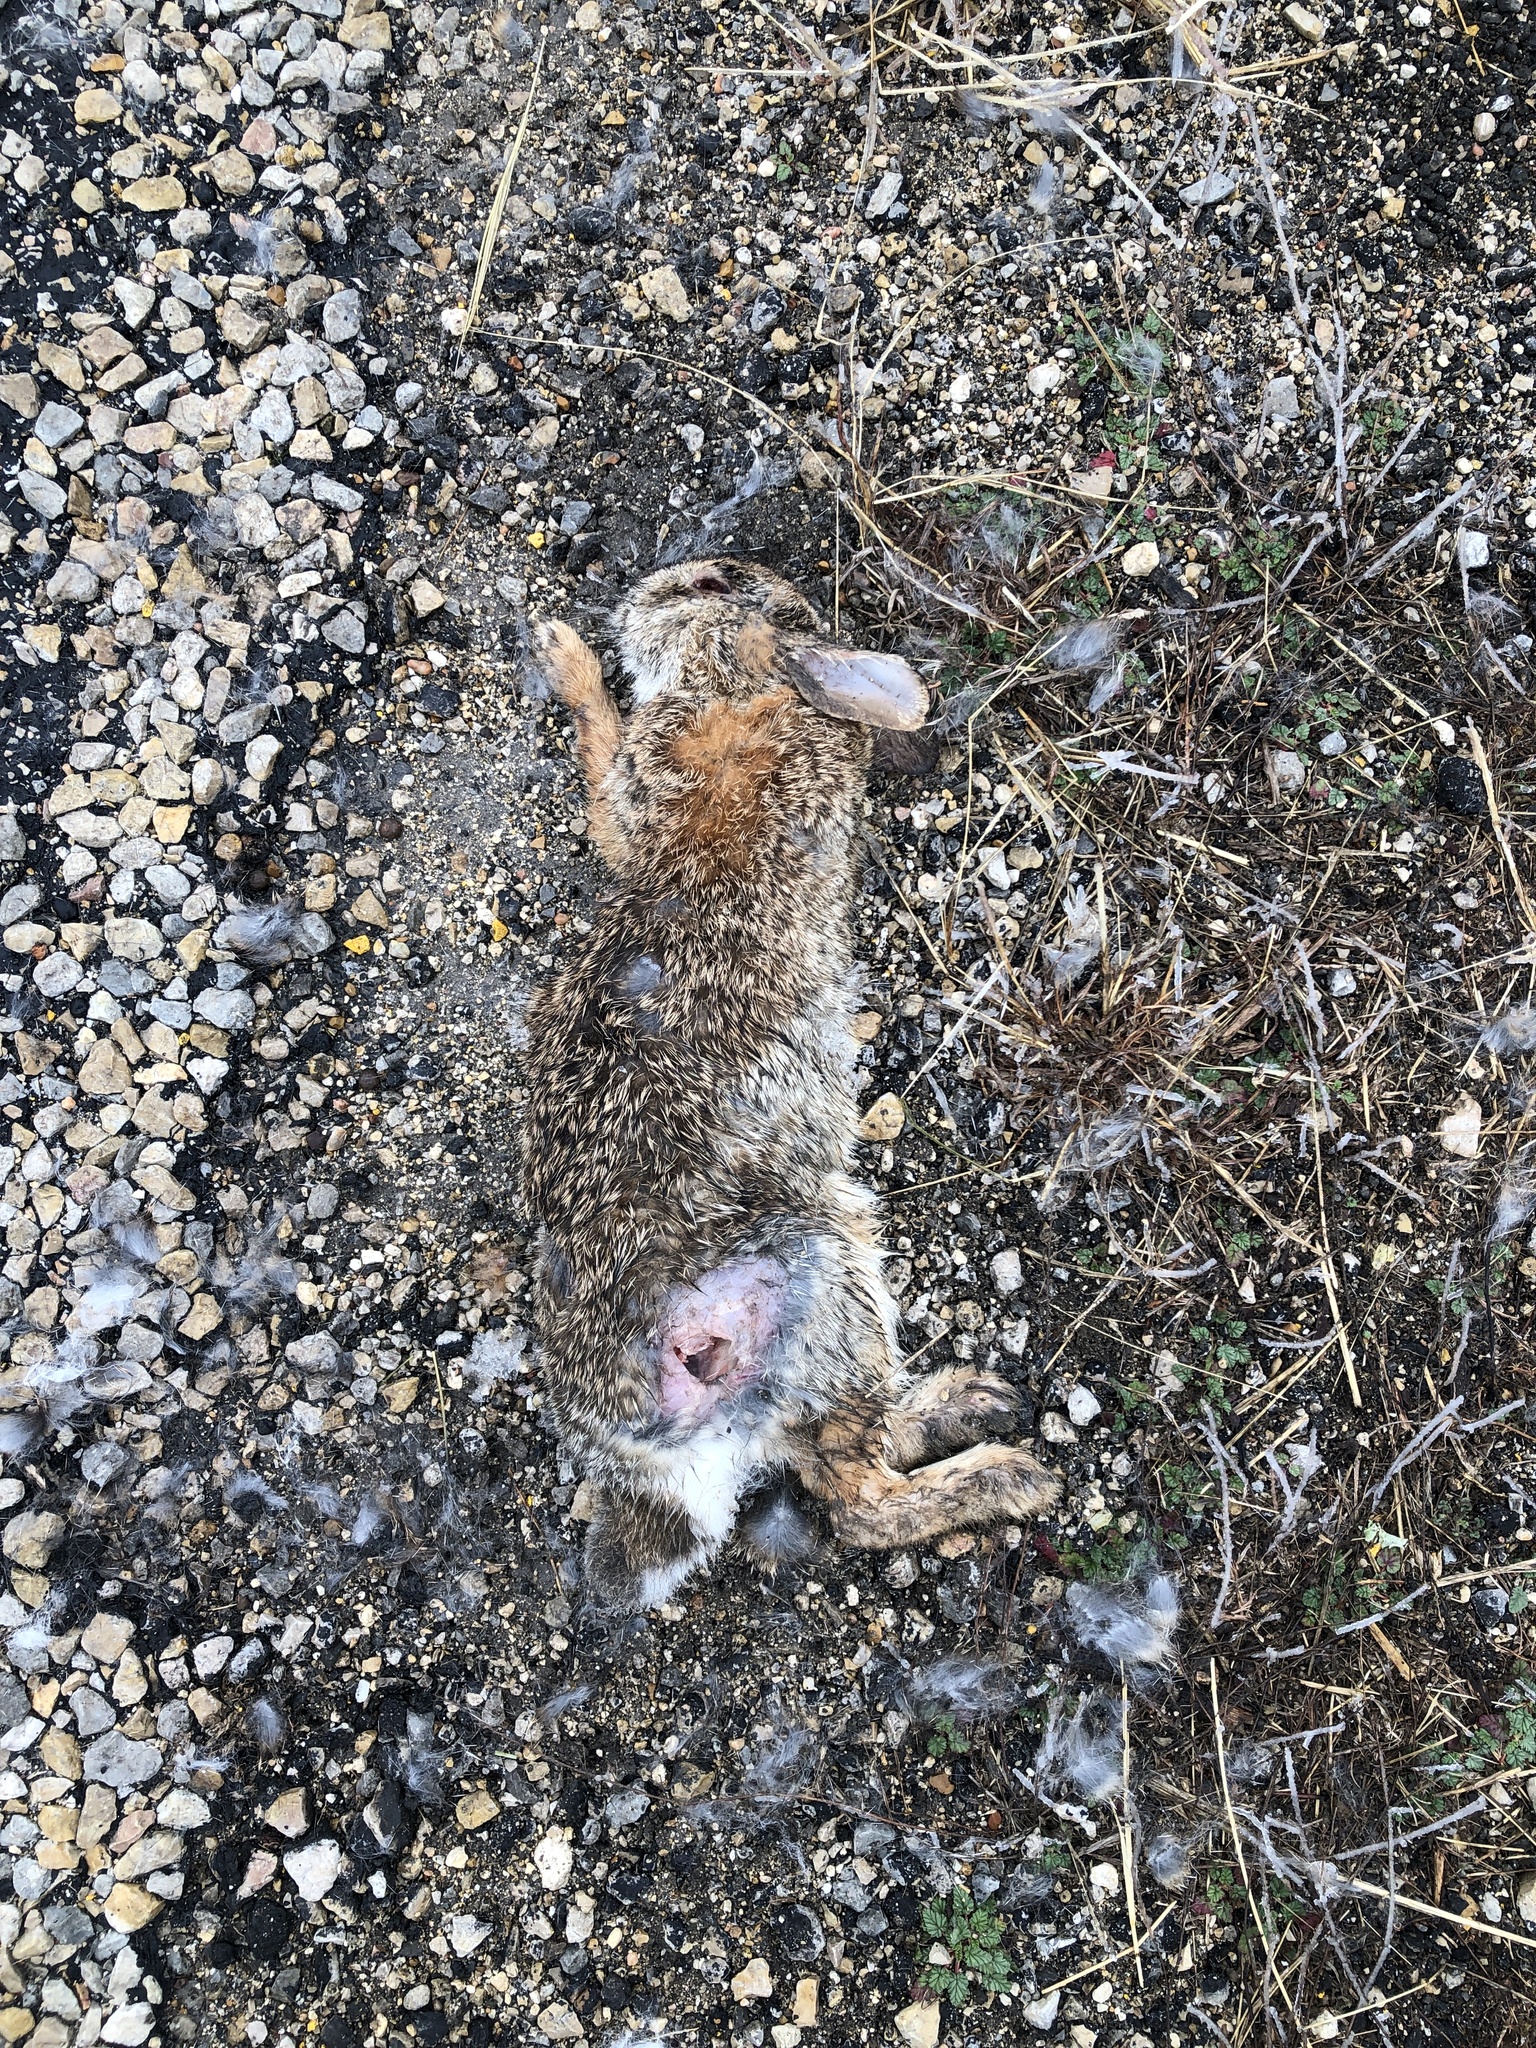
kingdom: Animalia
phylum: Chordata
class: Mammalia
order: Lagomorpha
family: Leporidae
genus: Sylvilagus
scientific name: Sylvilagus floridanus
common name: Eastern cottontail
